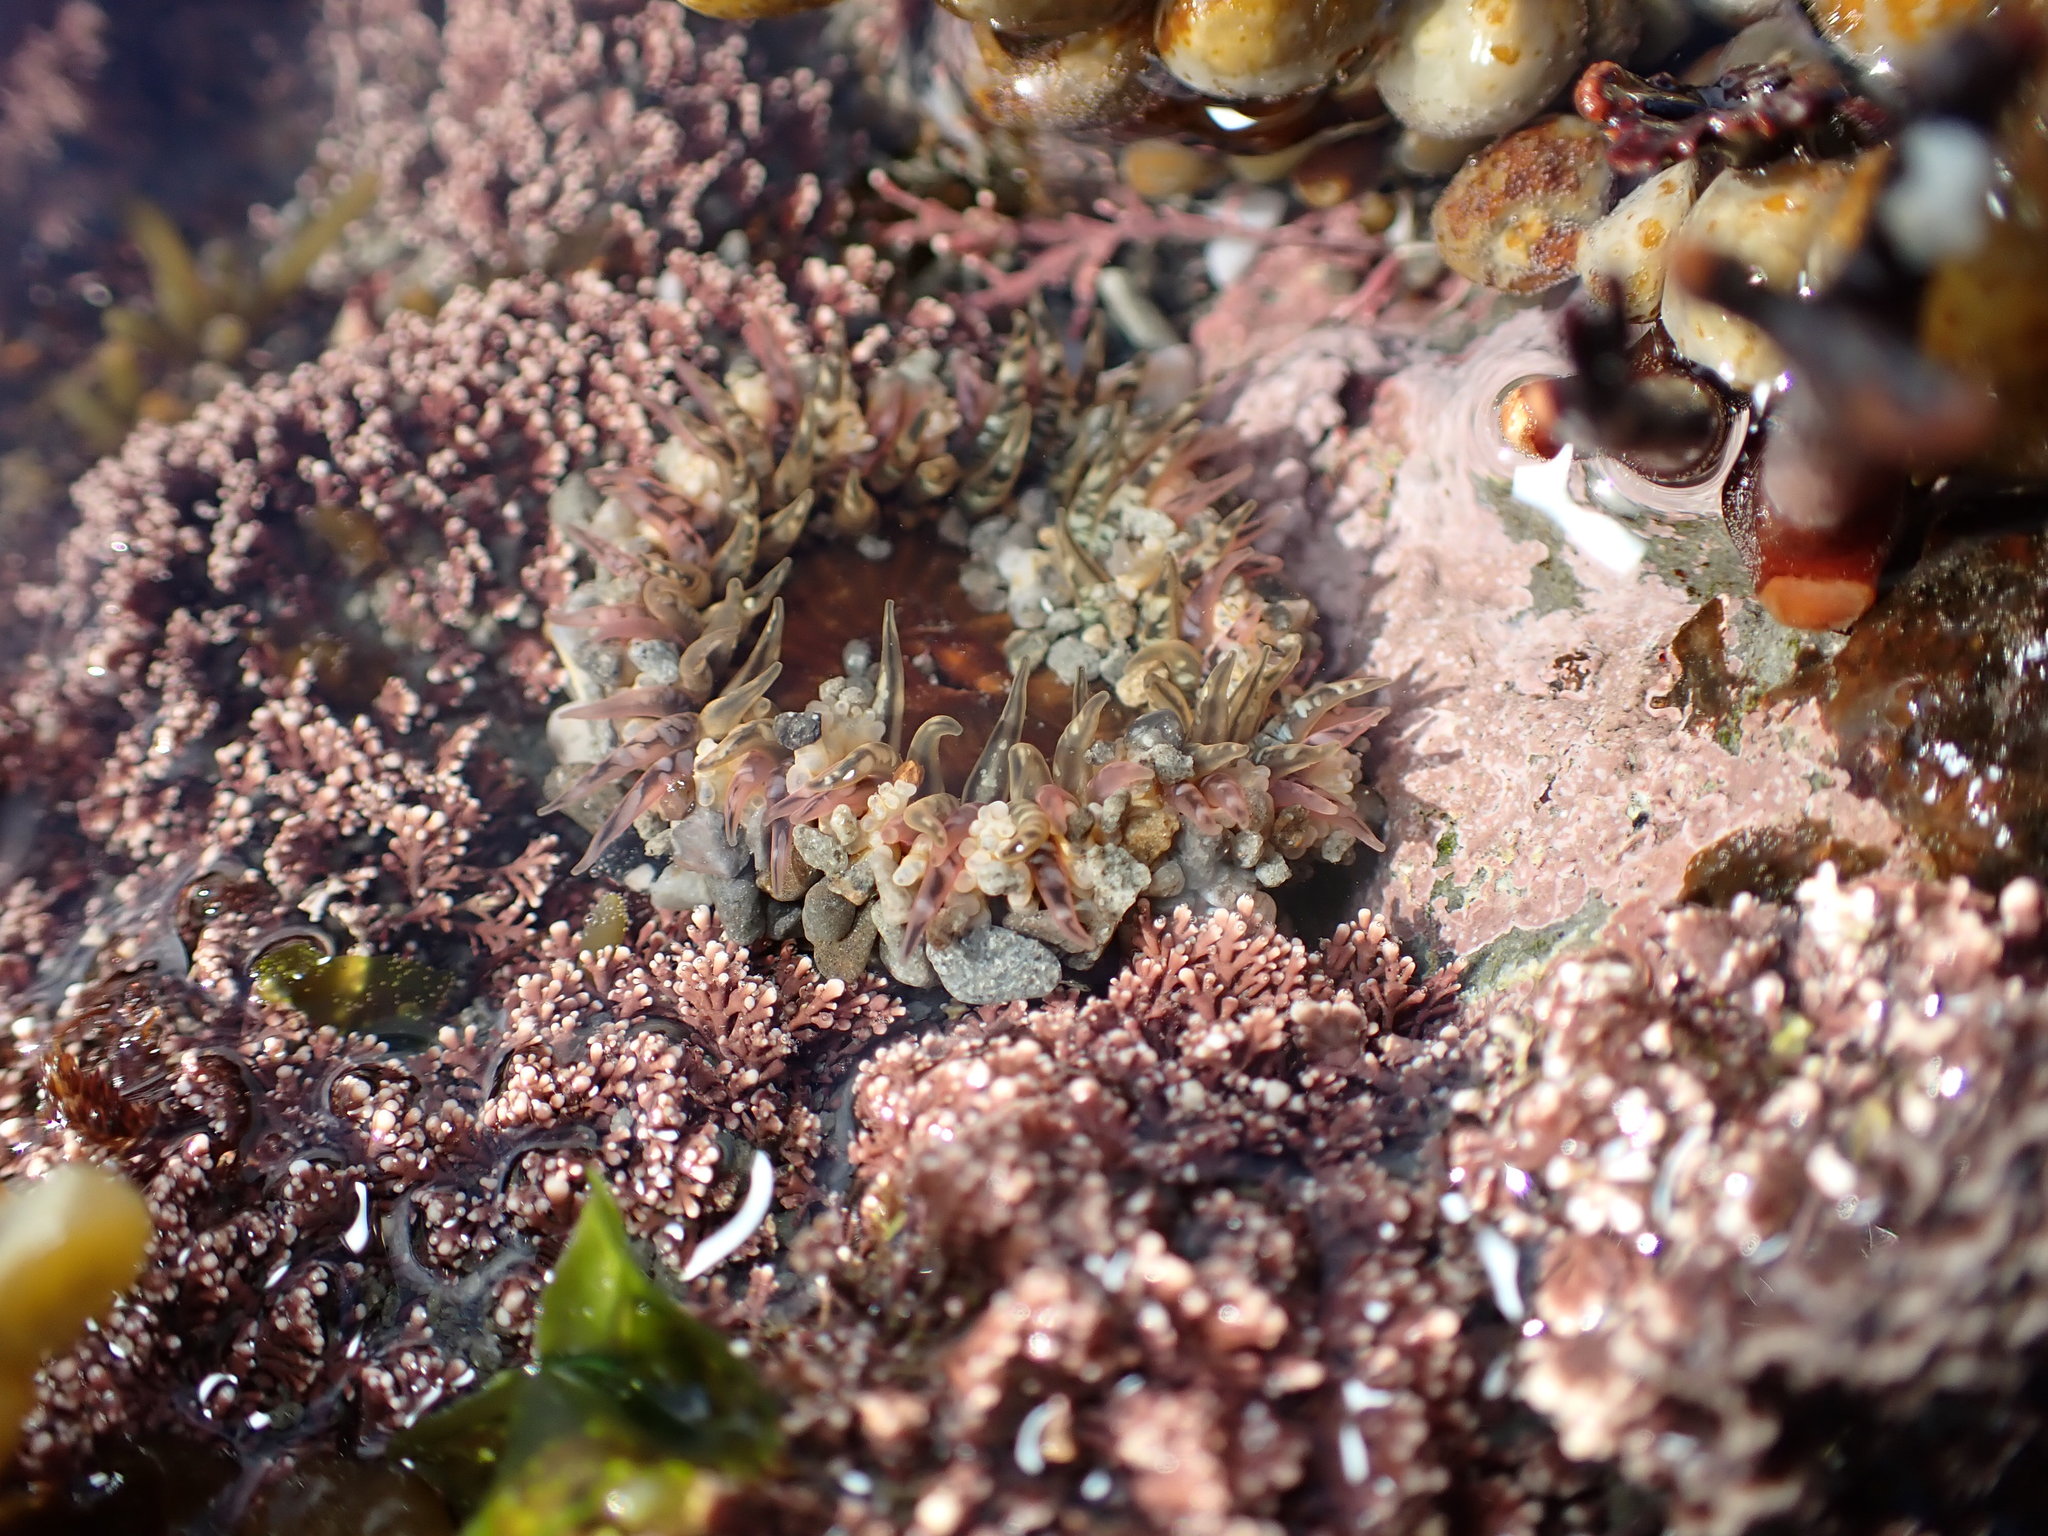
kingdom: Animalia
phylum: Cnidaria
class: Anthozoa
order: Actiniaria
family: Actiniidae
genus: Oulactis
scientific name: Oulactis muscosa
